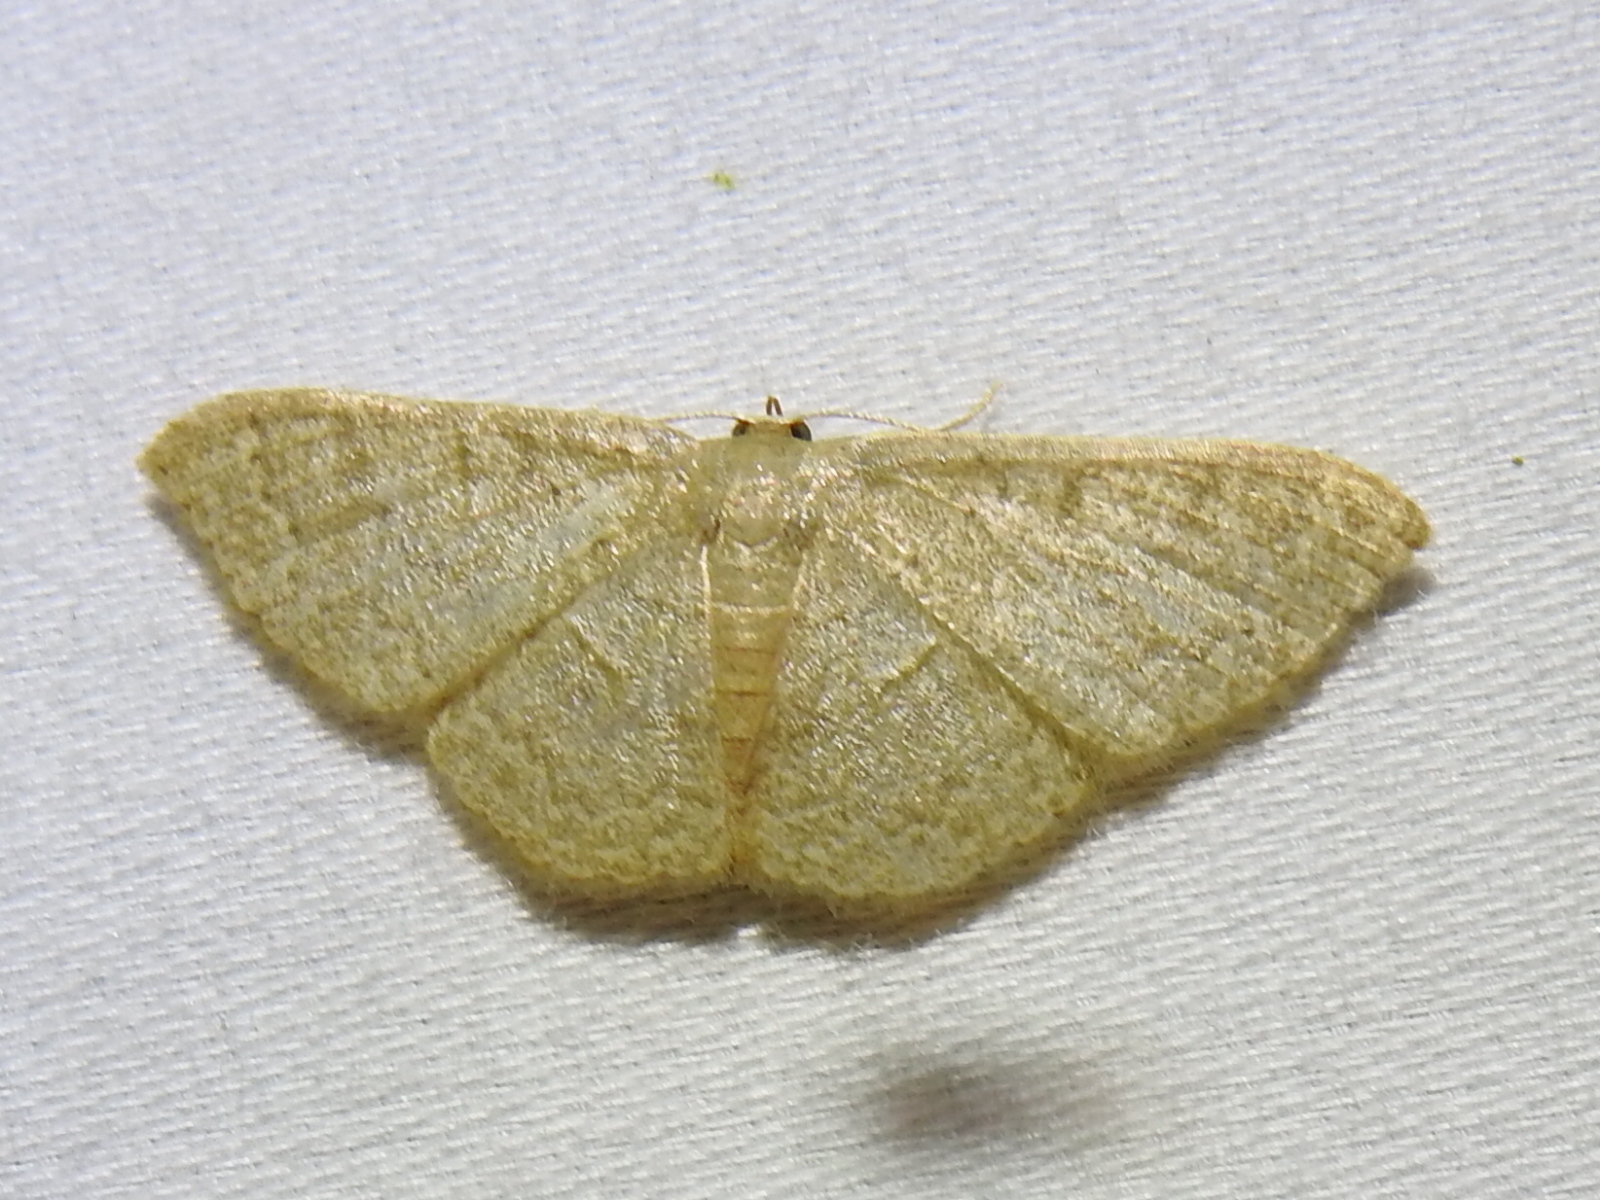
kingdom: Animalia
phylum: Arthropoda
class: Insecta
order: Lepidoptera
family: Geometridae
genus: Pleuroprucha
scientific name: Pleuroprucha insulsaria
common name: Common tan wave
